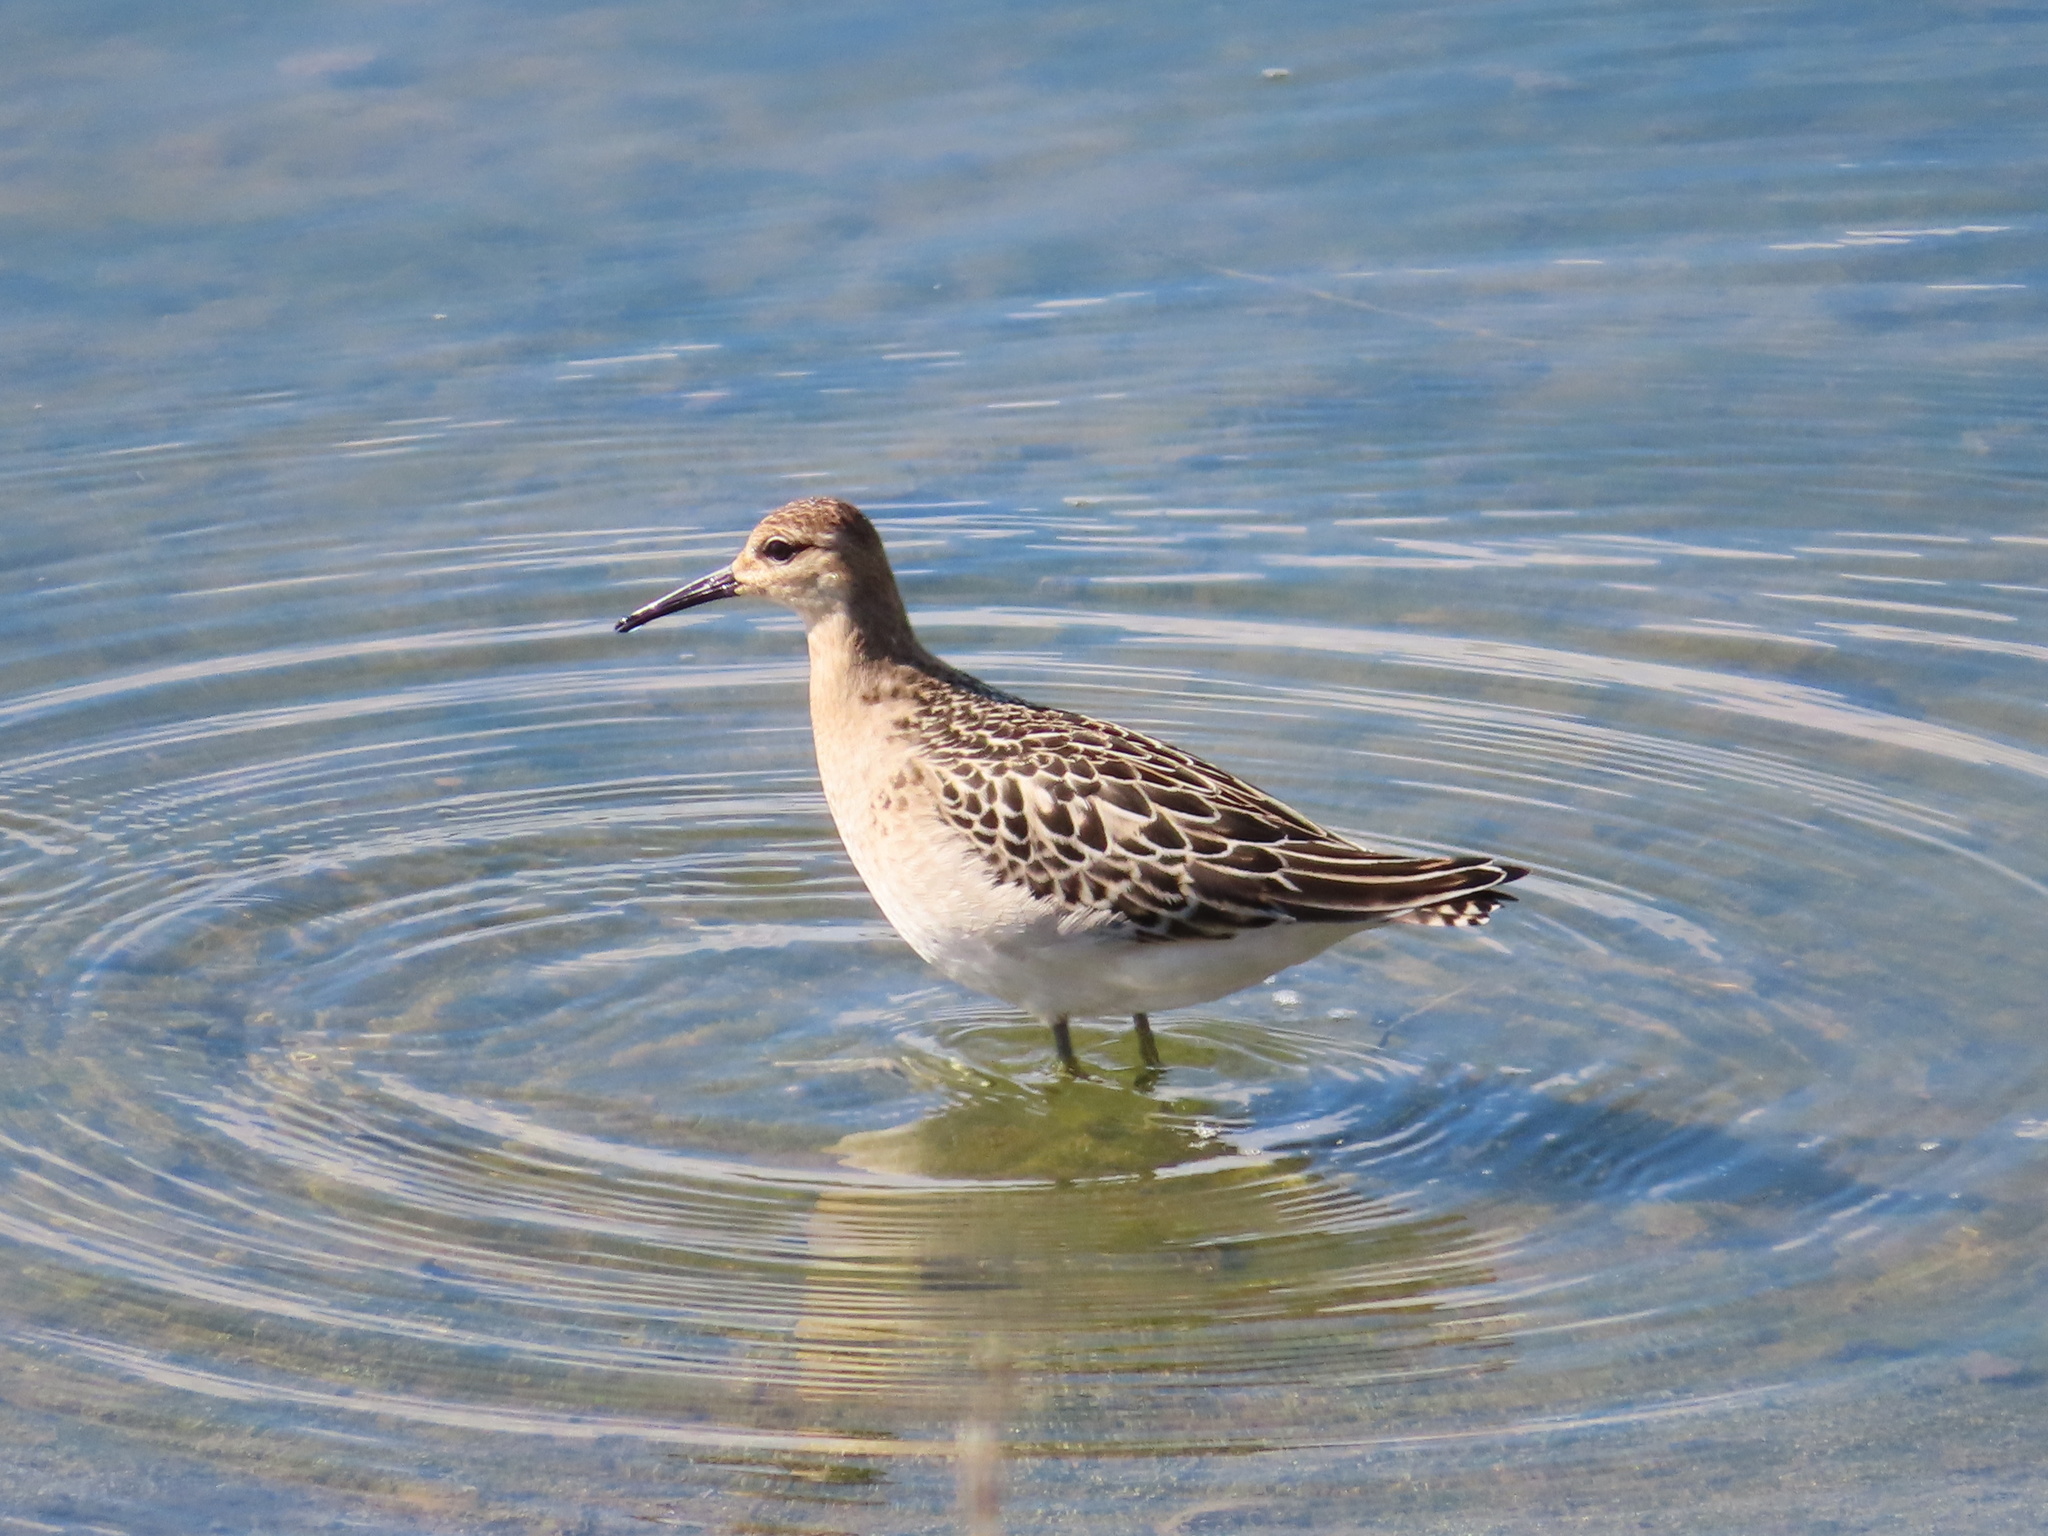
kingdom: Animalia
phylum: Chordata
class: Aves
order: Charadriiformes
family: Scolopacidae
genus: Calidris
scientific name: Calidris pugnax
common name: Ruff
